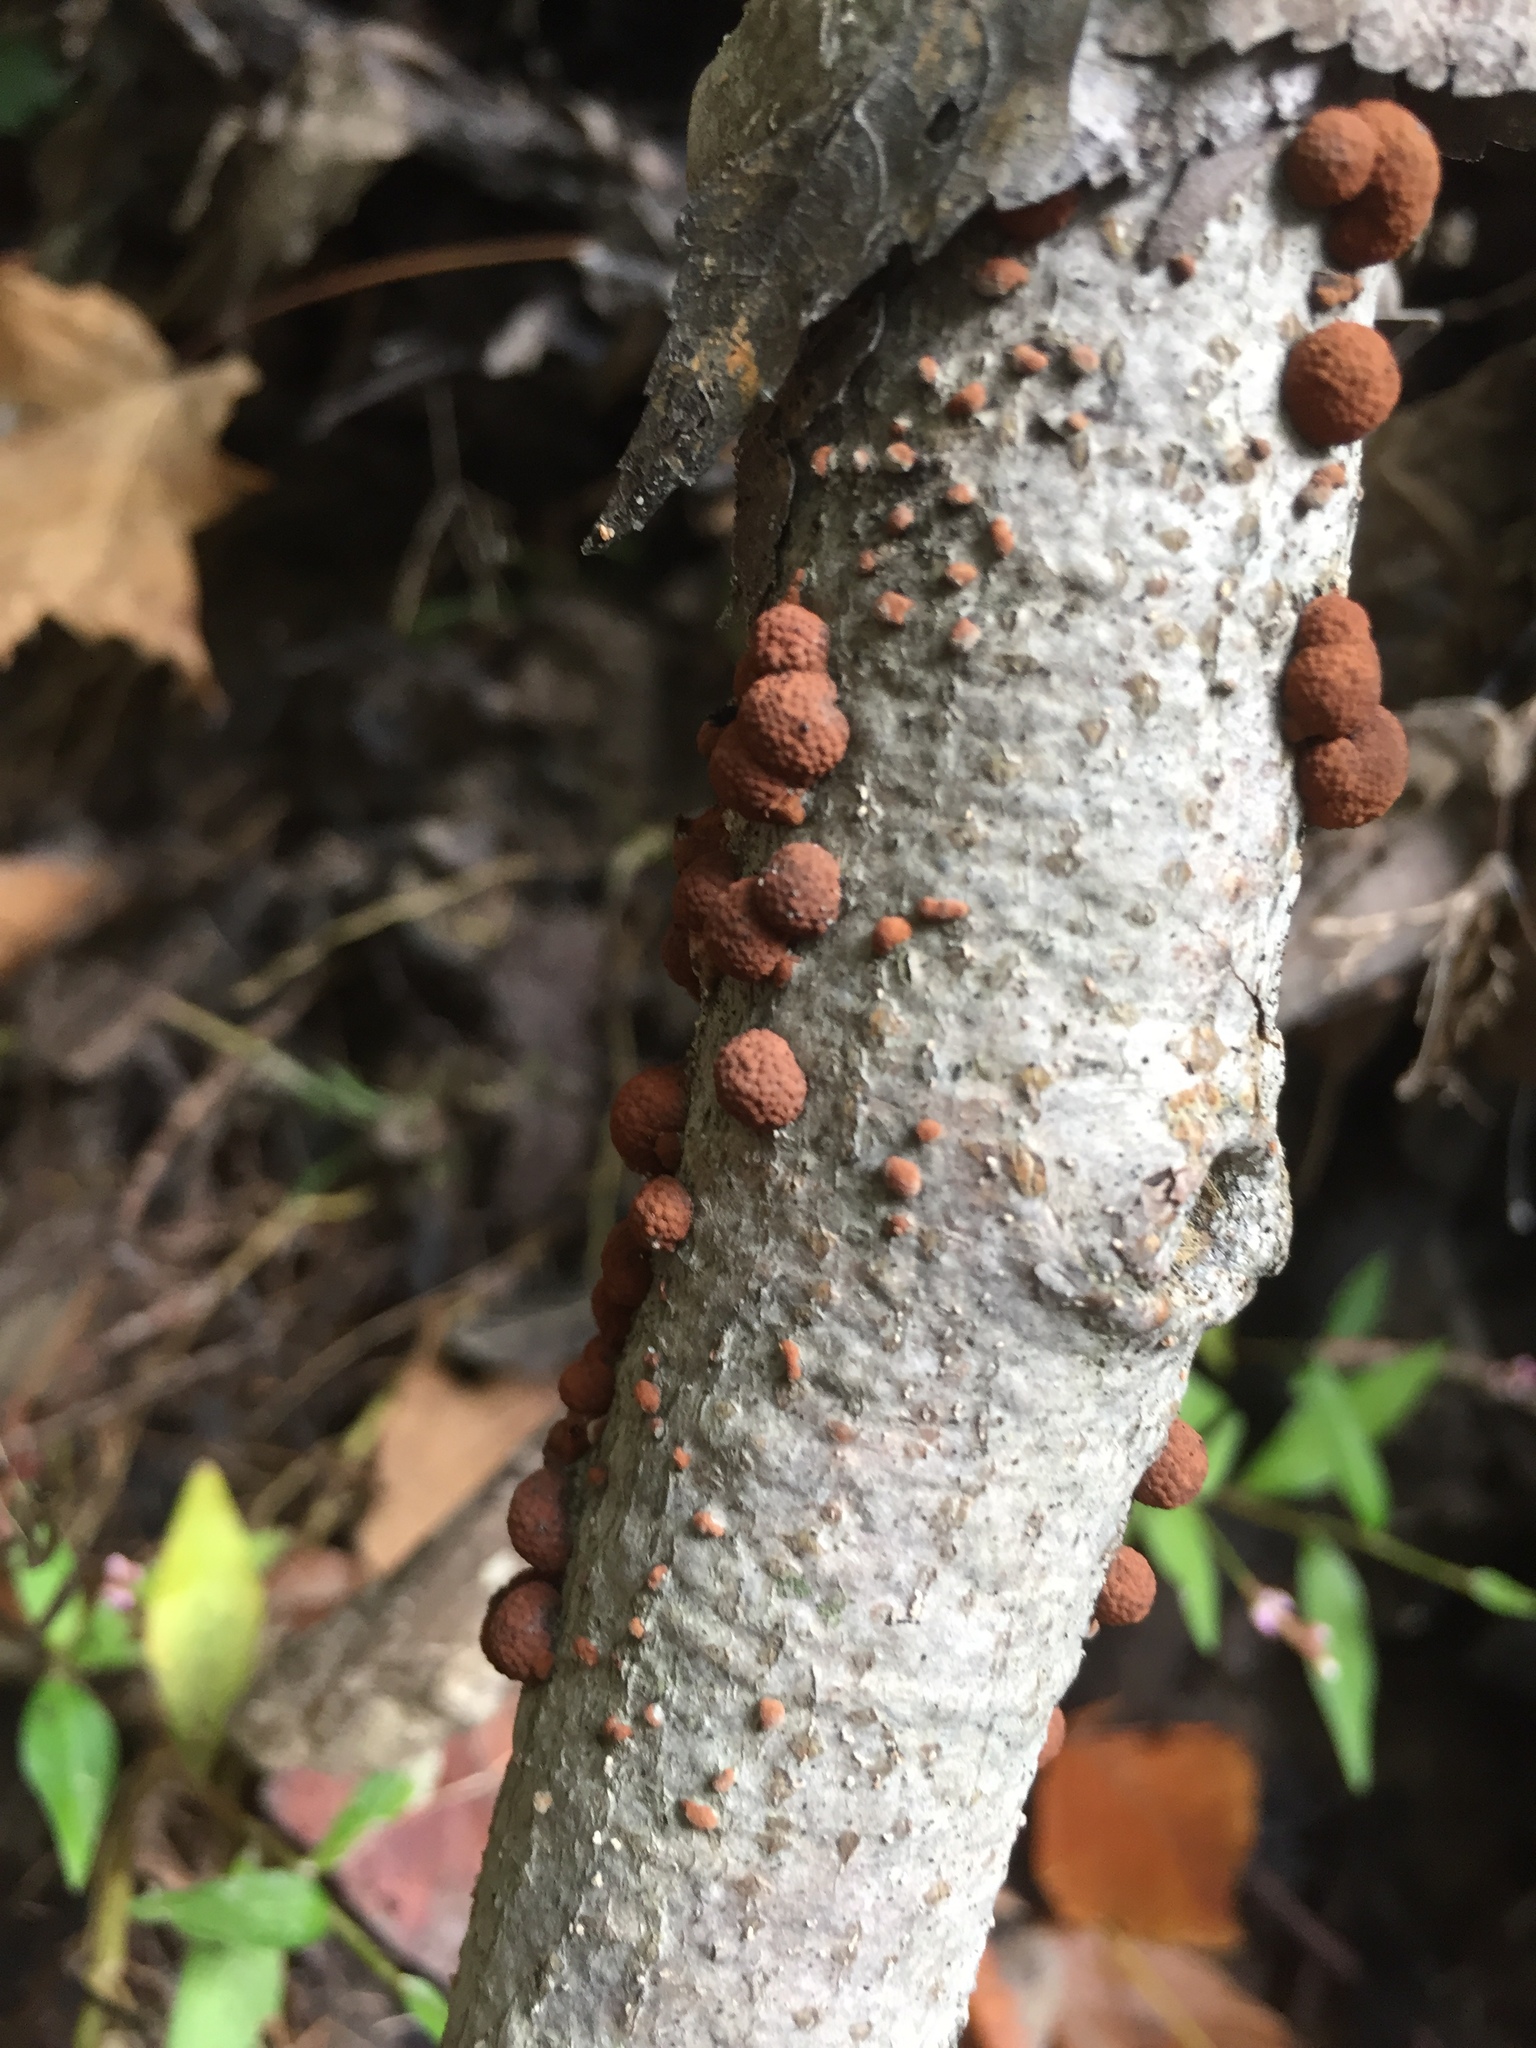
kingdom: Fungi
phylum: Ascomycota
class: Sordariomycetes
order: Xylariales
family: Hypoxylaceae
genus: Hypoxylon
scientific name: Hypoxylon fragiforme
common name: Beech woodwart
